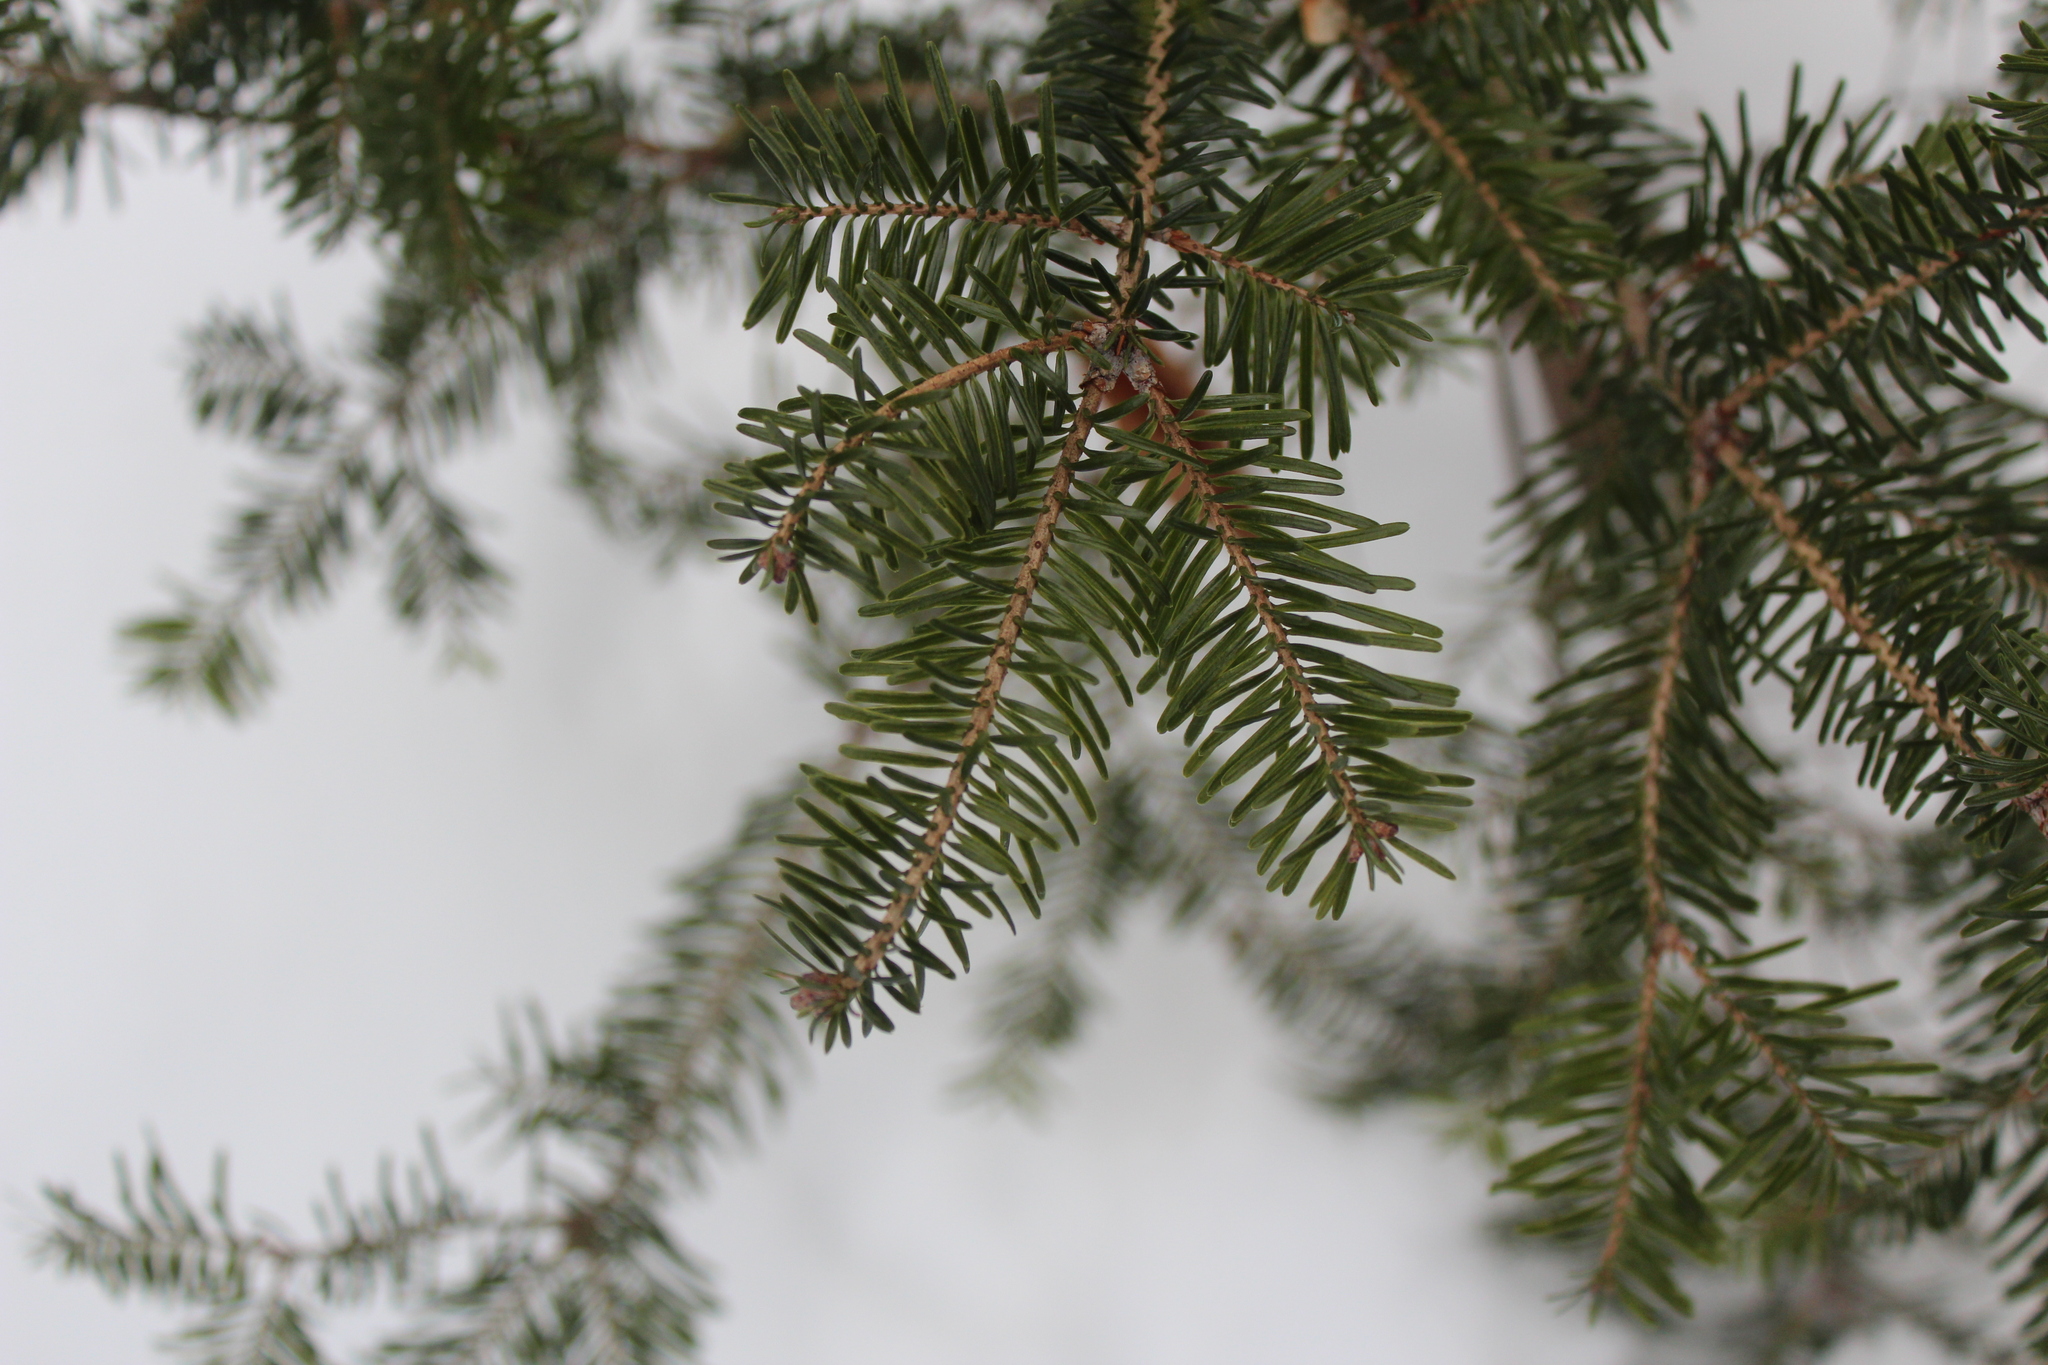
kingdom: Plantae
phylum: Tracheophyta
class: Pinopsida
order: Pinales
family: Pinaceae
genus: Abies
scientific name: Abies balsamea
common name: Balsam fir
